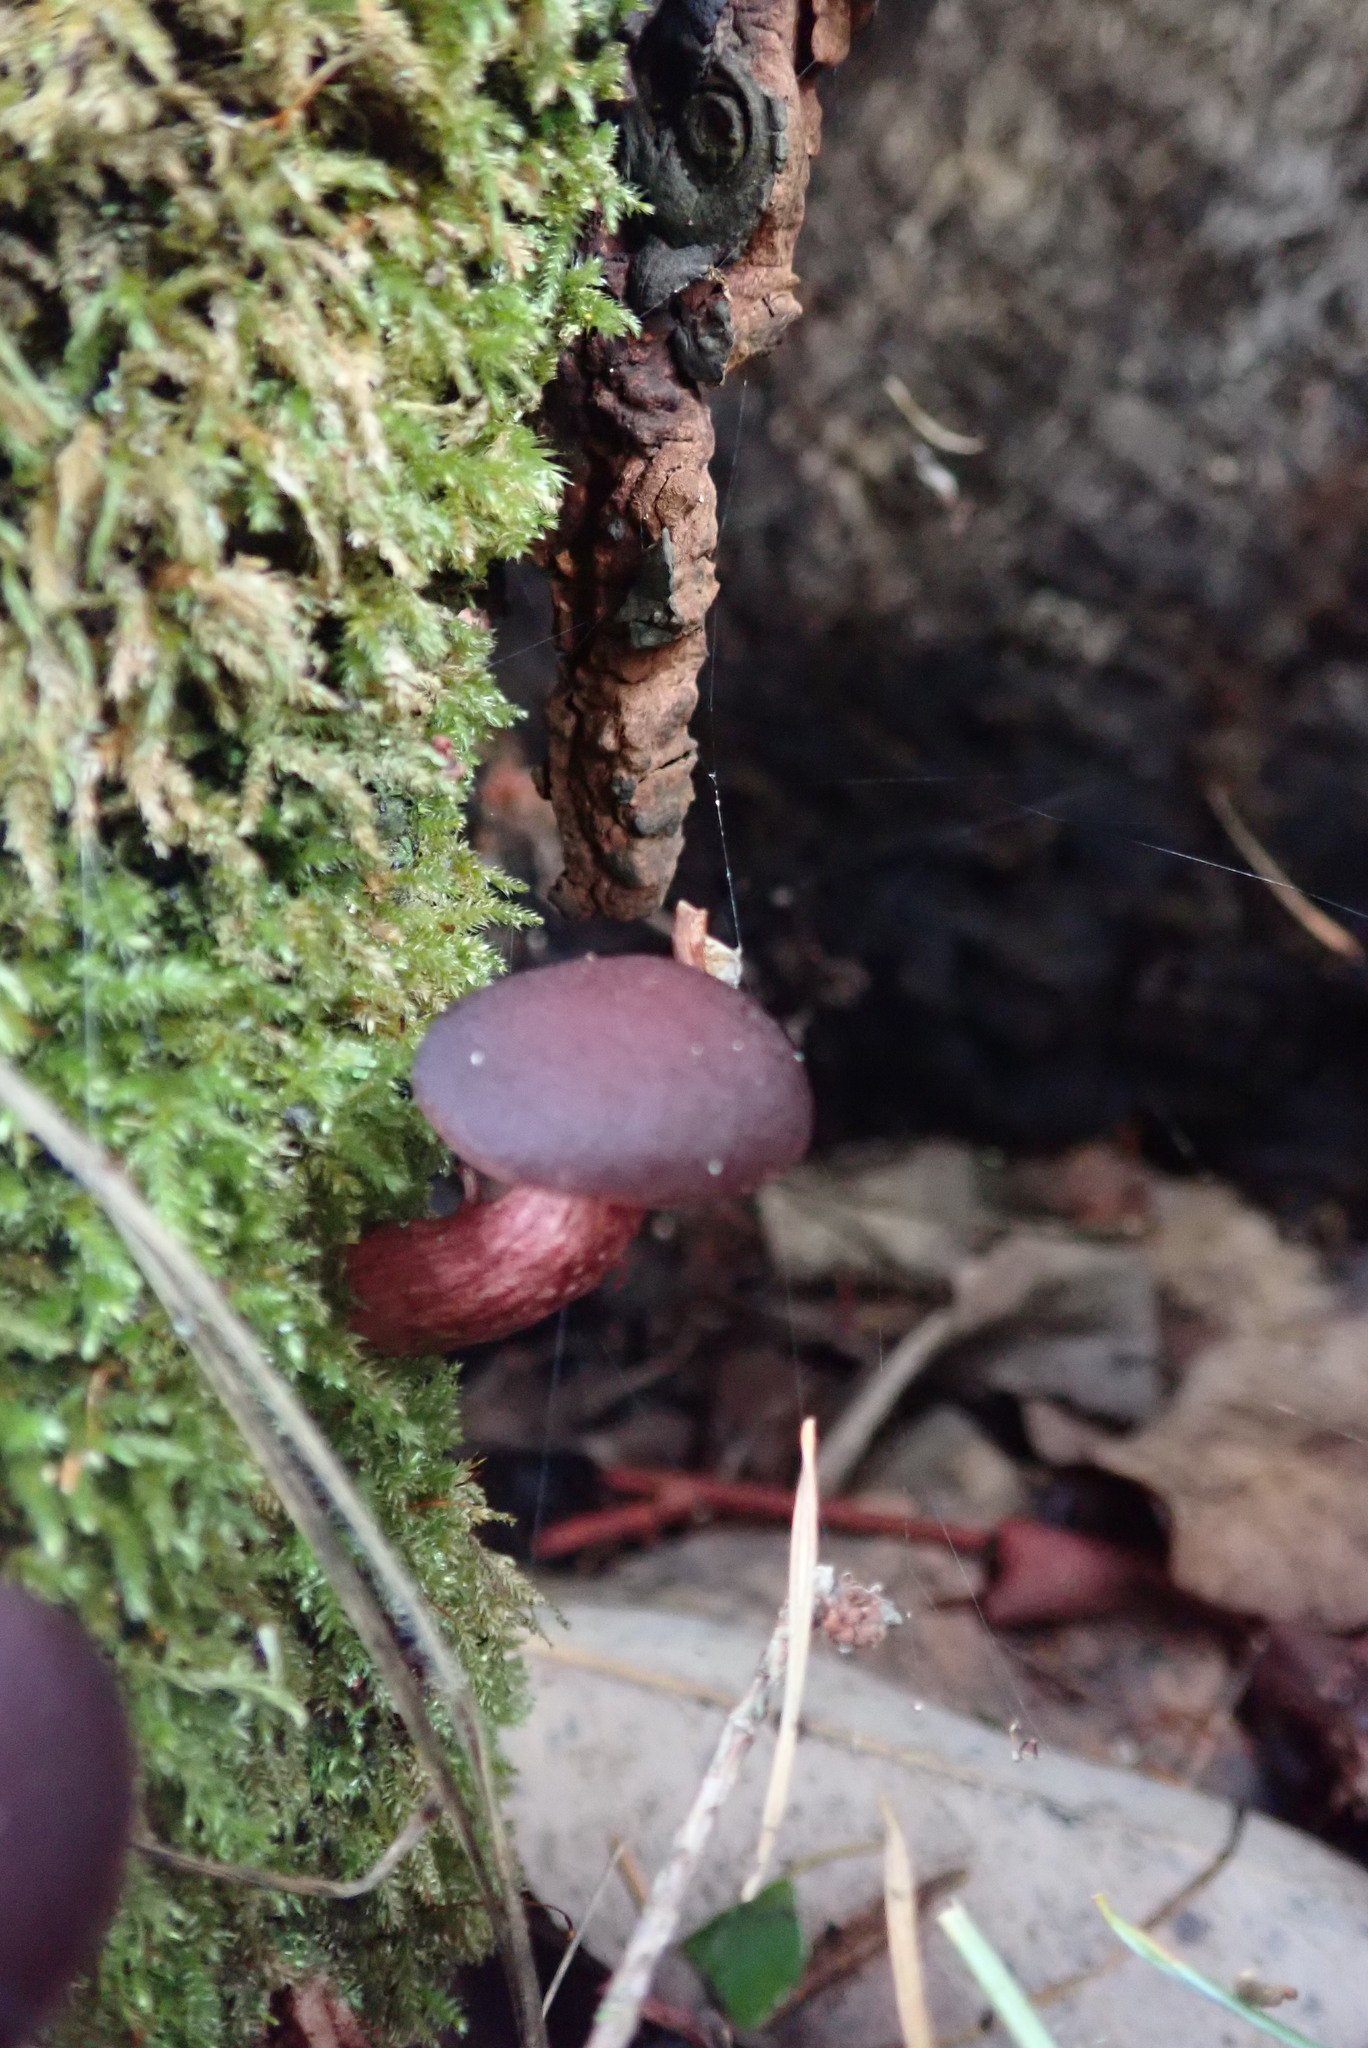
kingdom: Fungi
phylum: Basidiomycota
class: Agaricomycetes
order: Agaricales
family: Tubariaceae
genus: Tubaria
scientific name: Tubaria punicea
